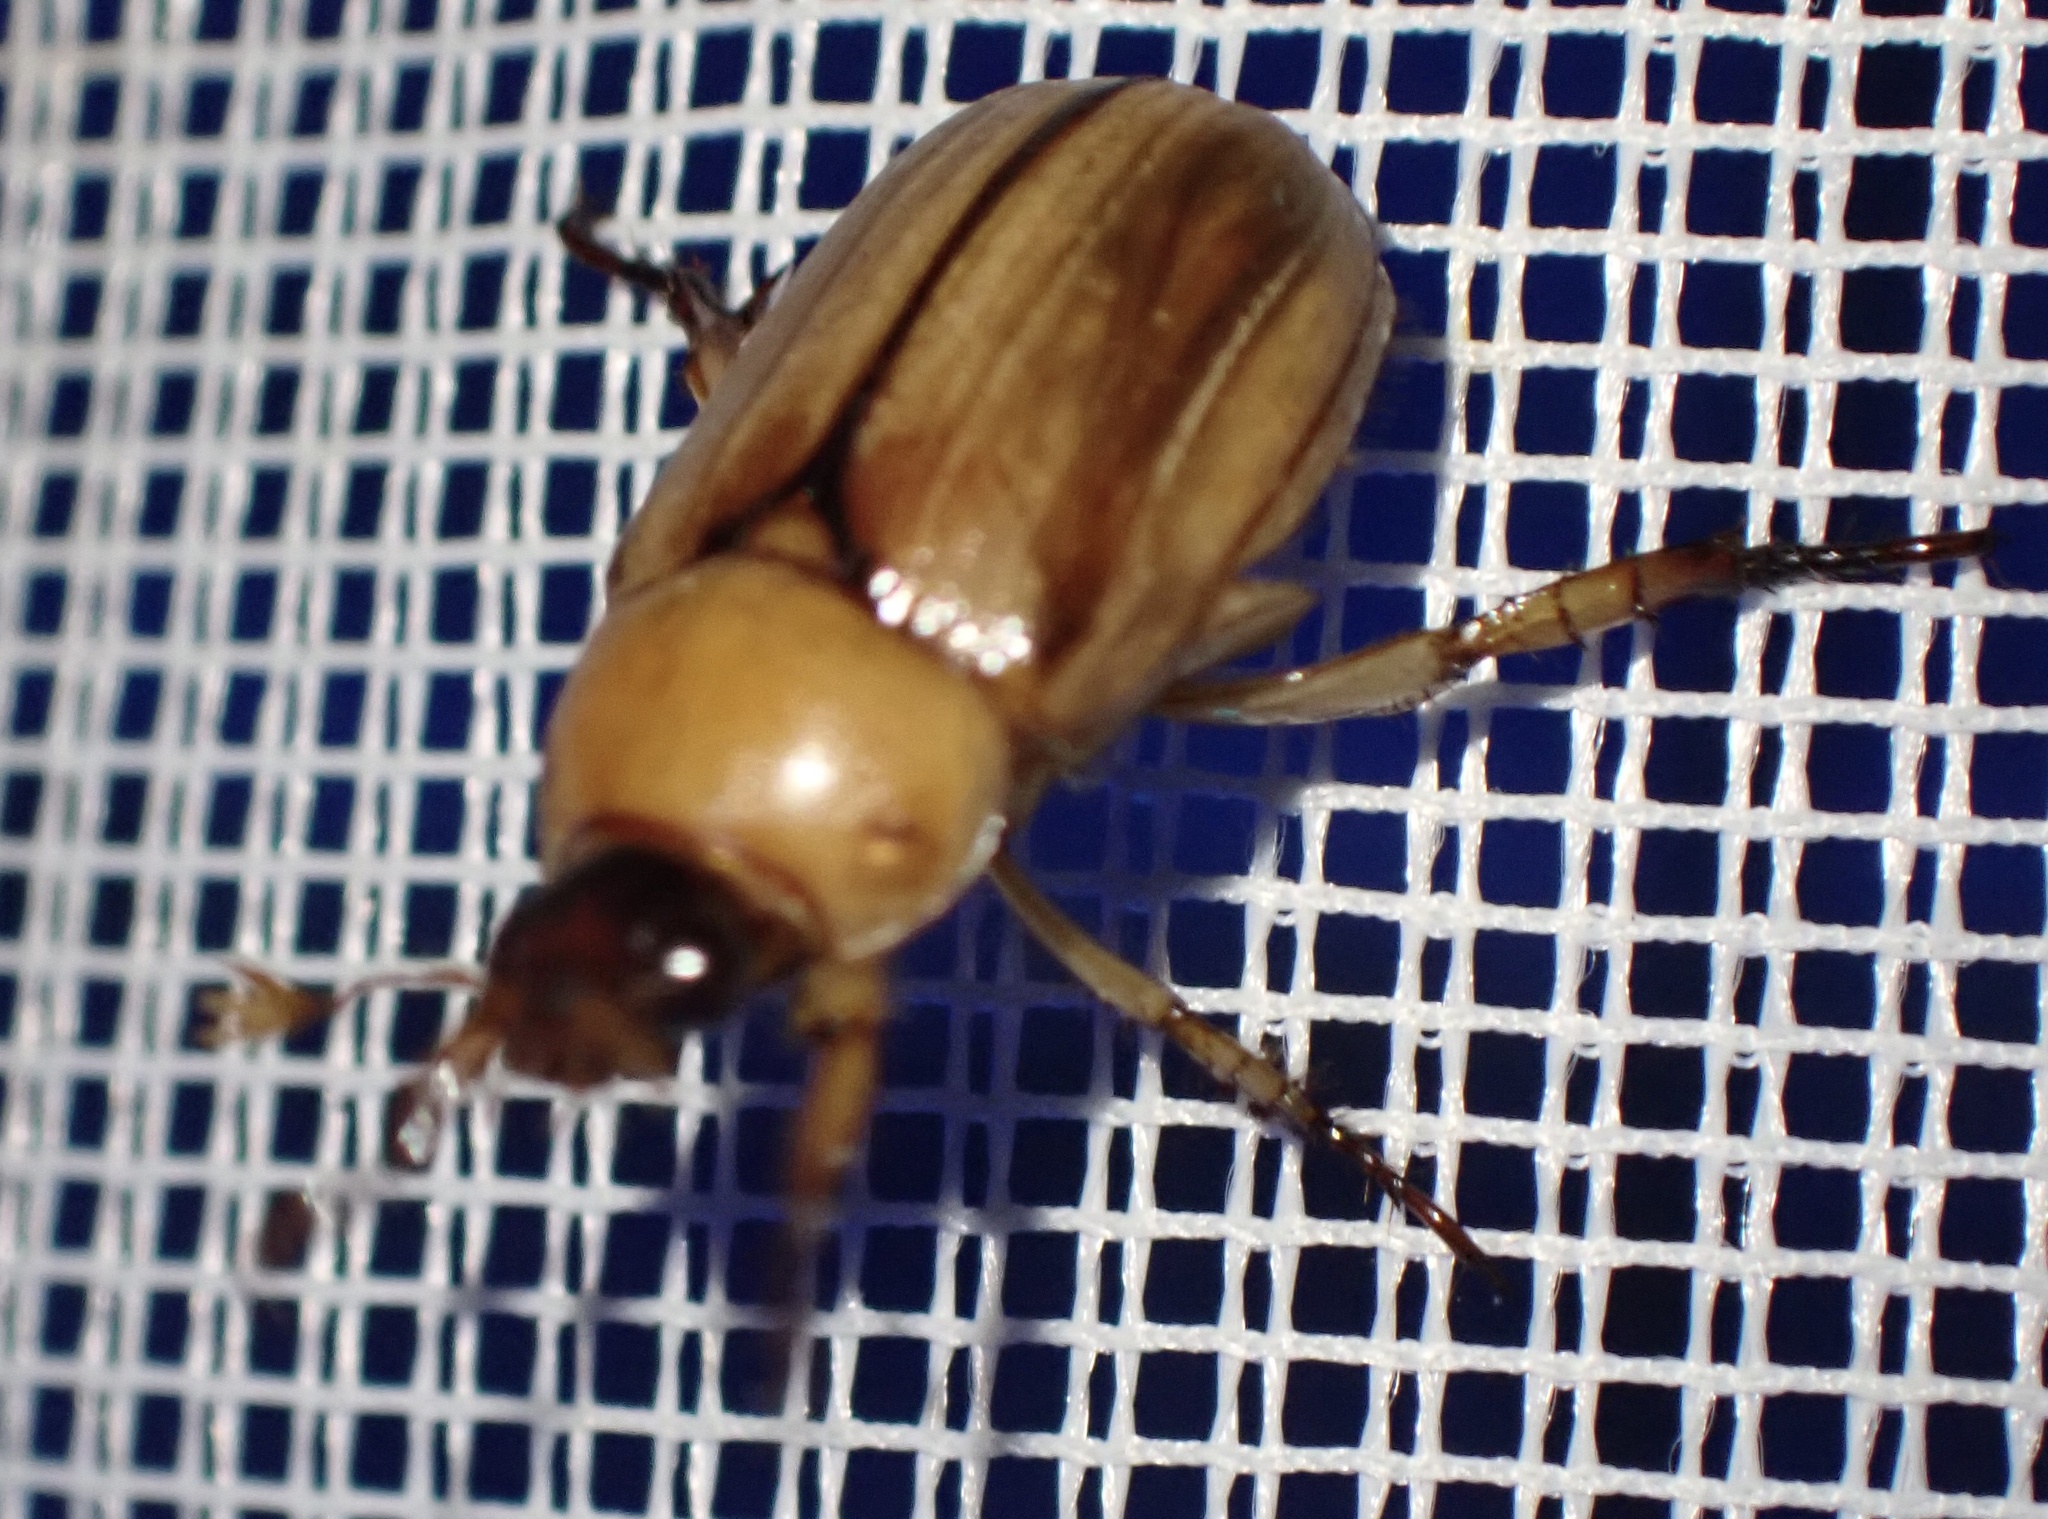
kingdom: Animalia
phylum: Arthropoda
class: Insecta
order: Coleoptera
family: Scarabaeidae
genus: Anomala
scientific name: Anomala pallida
